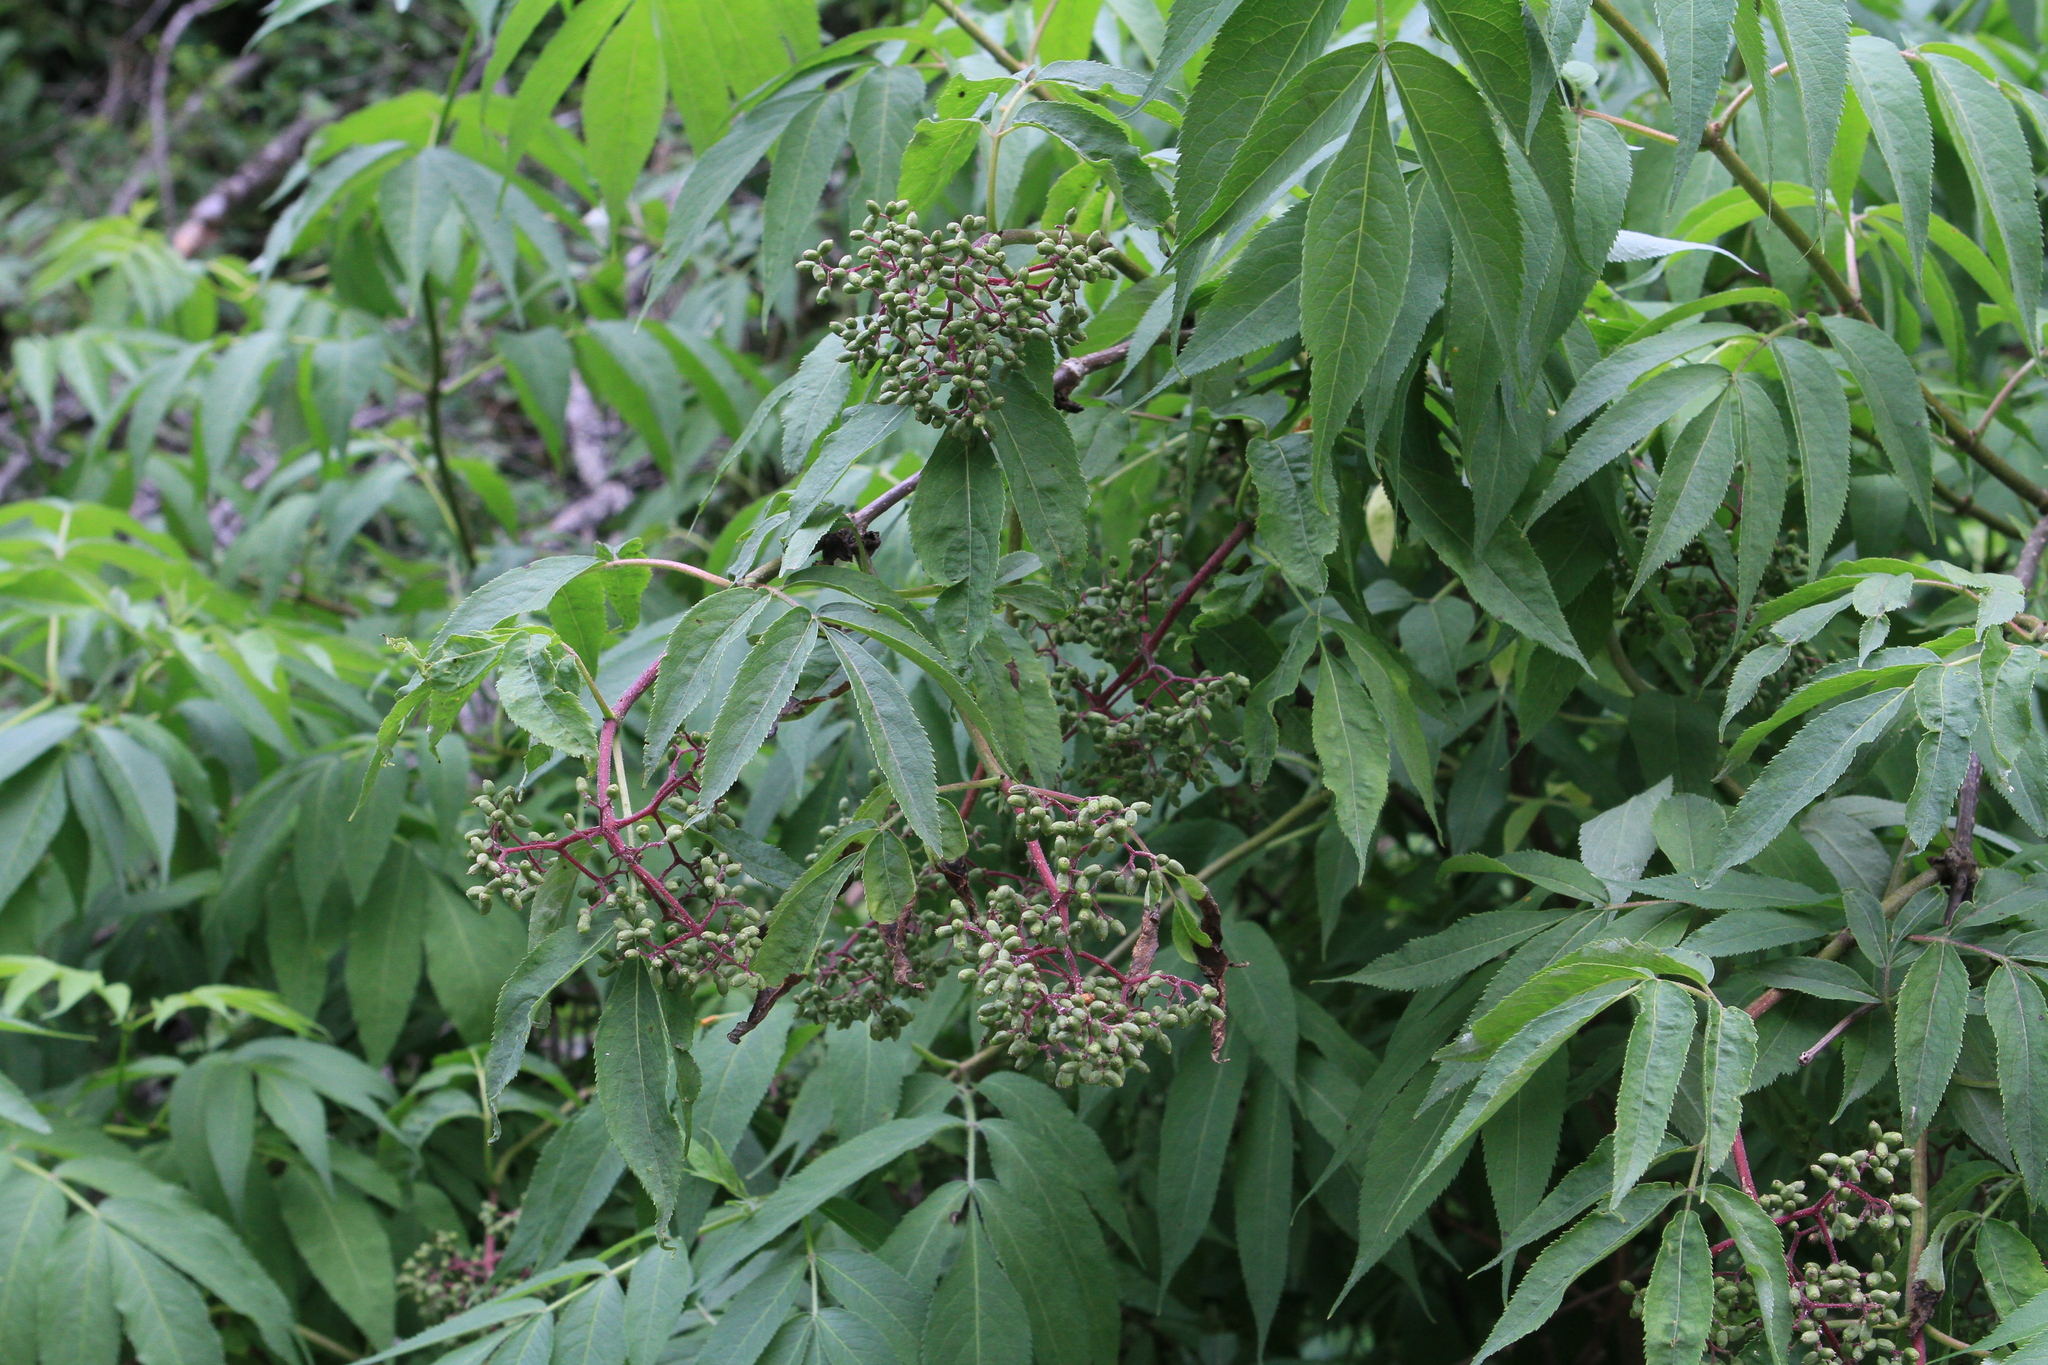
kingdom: Plantae
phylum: Tracheophyta
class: Magnoliopsida
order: Dipsacales
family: Viburnaceae
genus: Sambucus
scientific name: Sambucus sibirica
